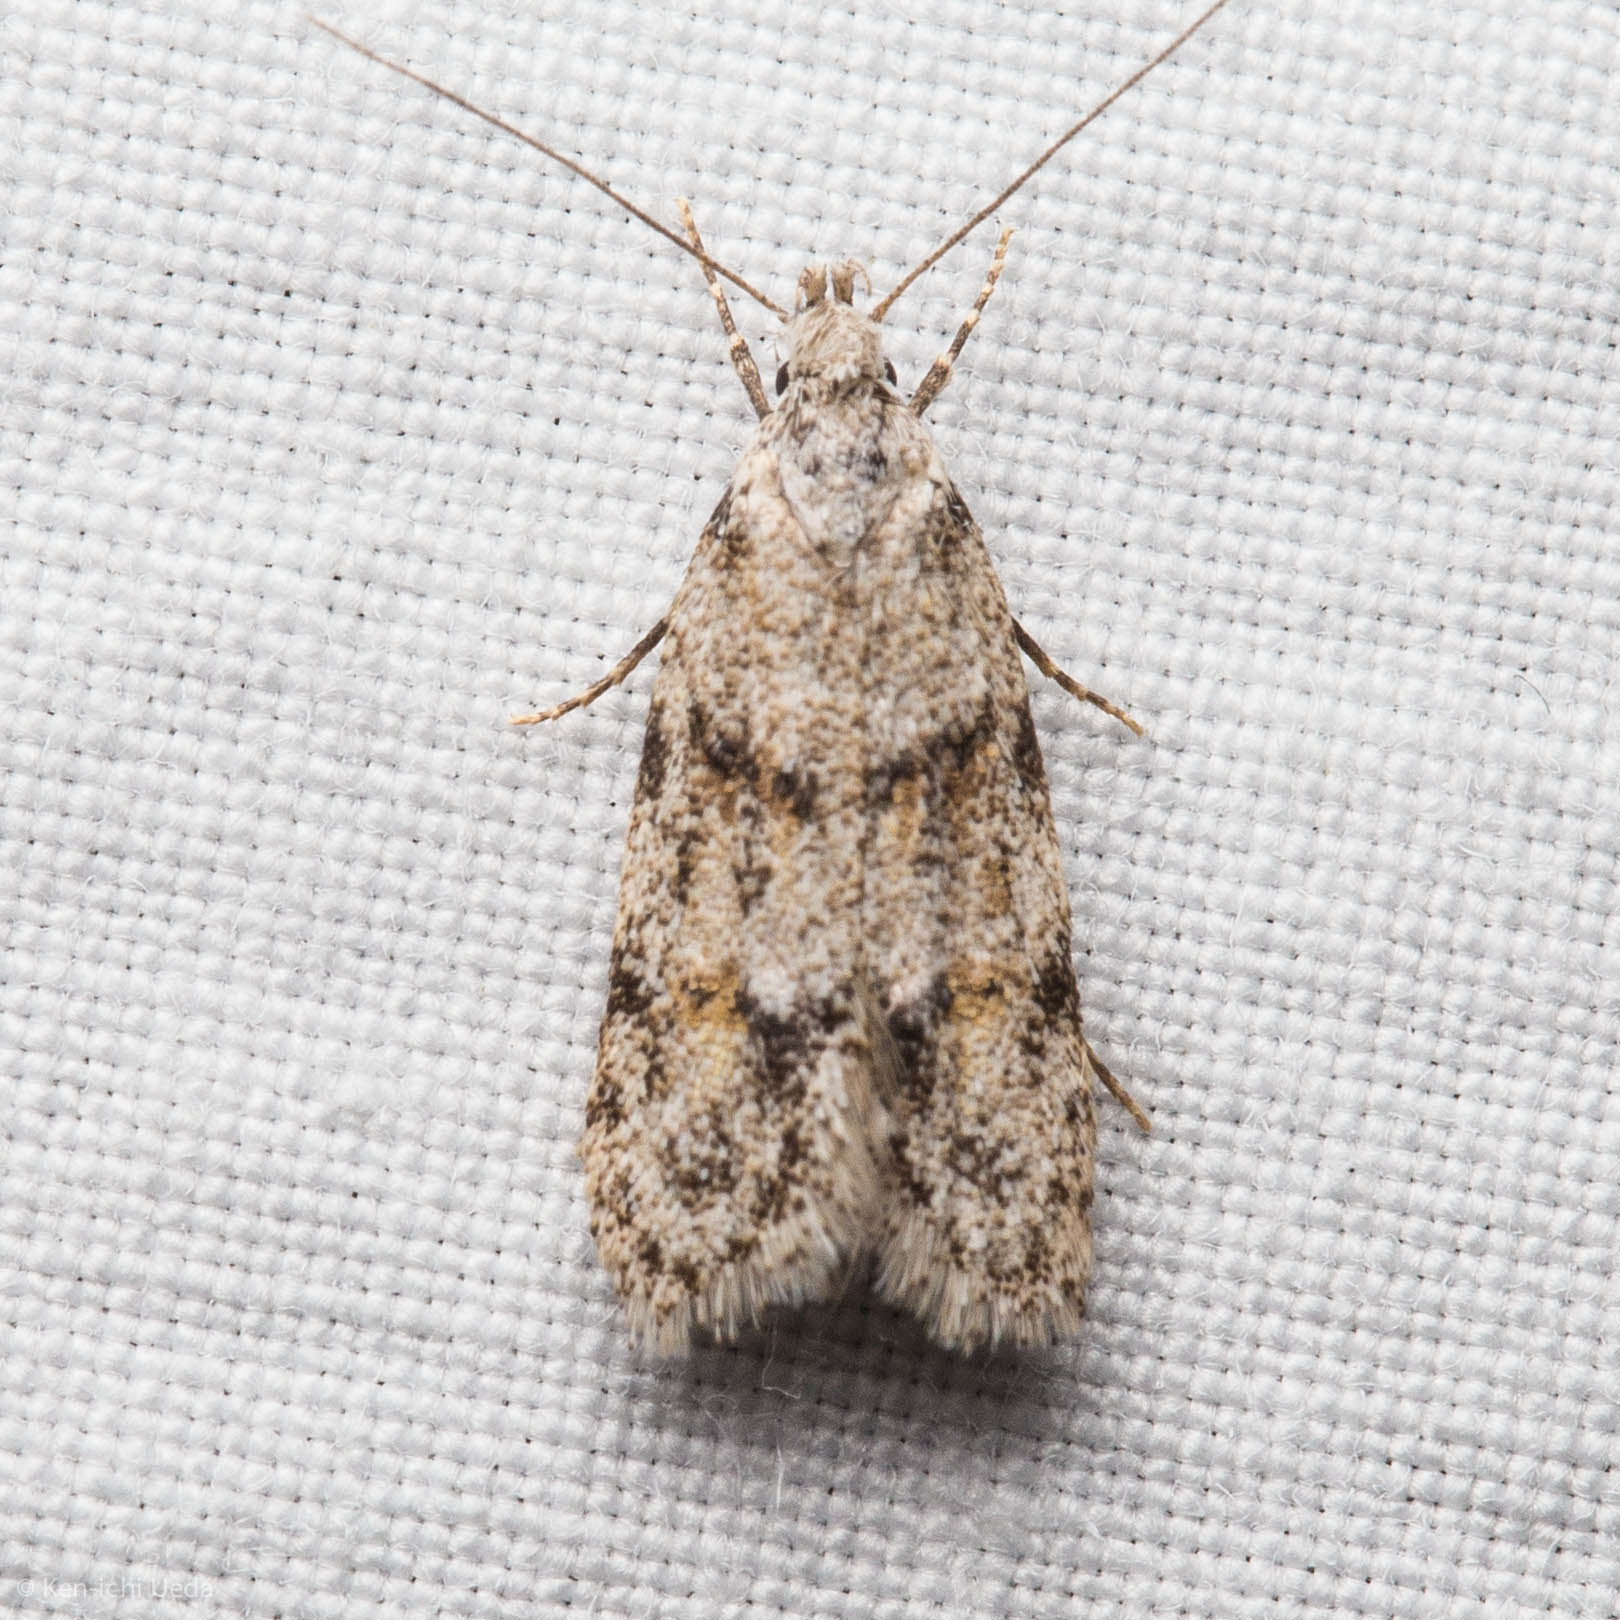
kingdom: Animalia
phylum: Arthropoda
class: Insecta
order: Lepidoptera
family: Autostichidae
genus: Symmoca
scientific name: Symmoca signatella
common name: Dockland obscure
